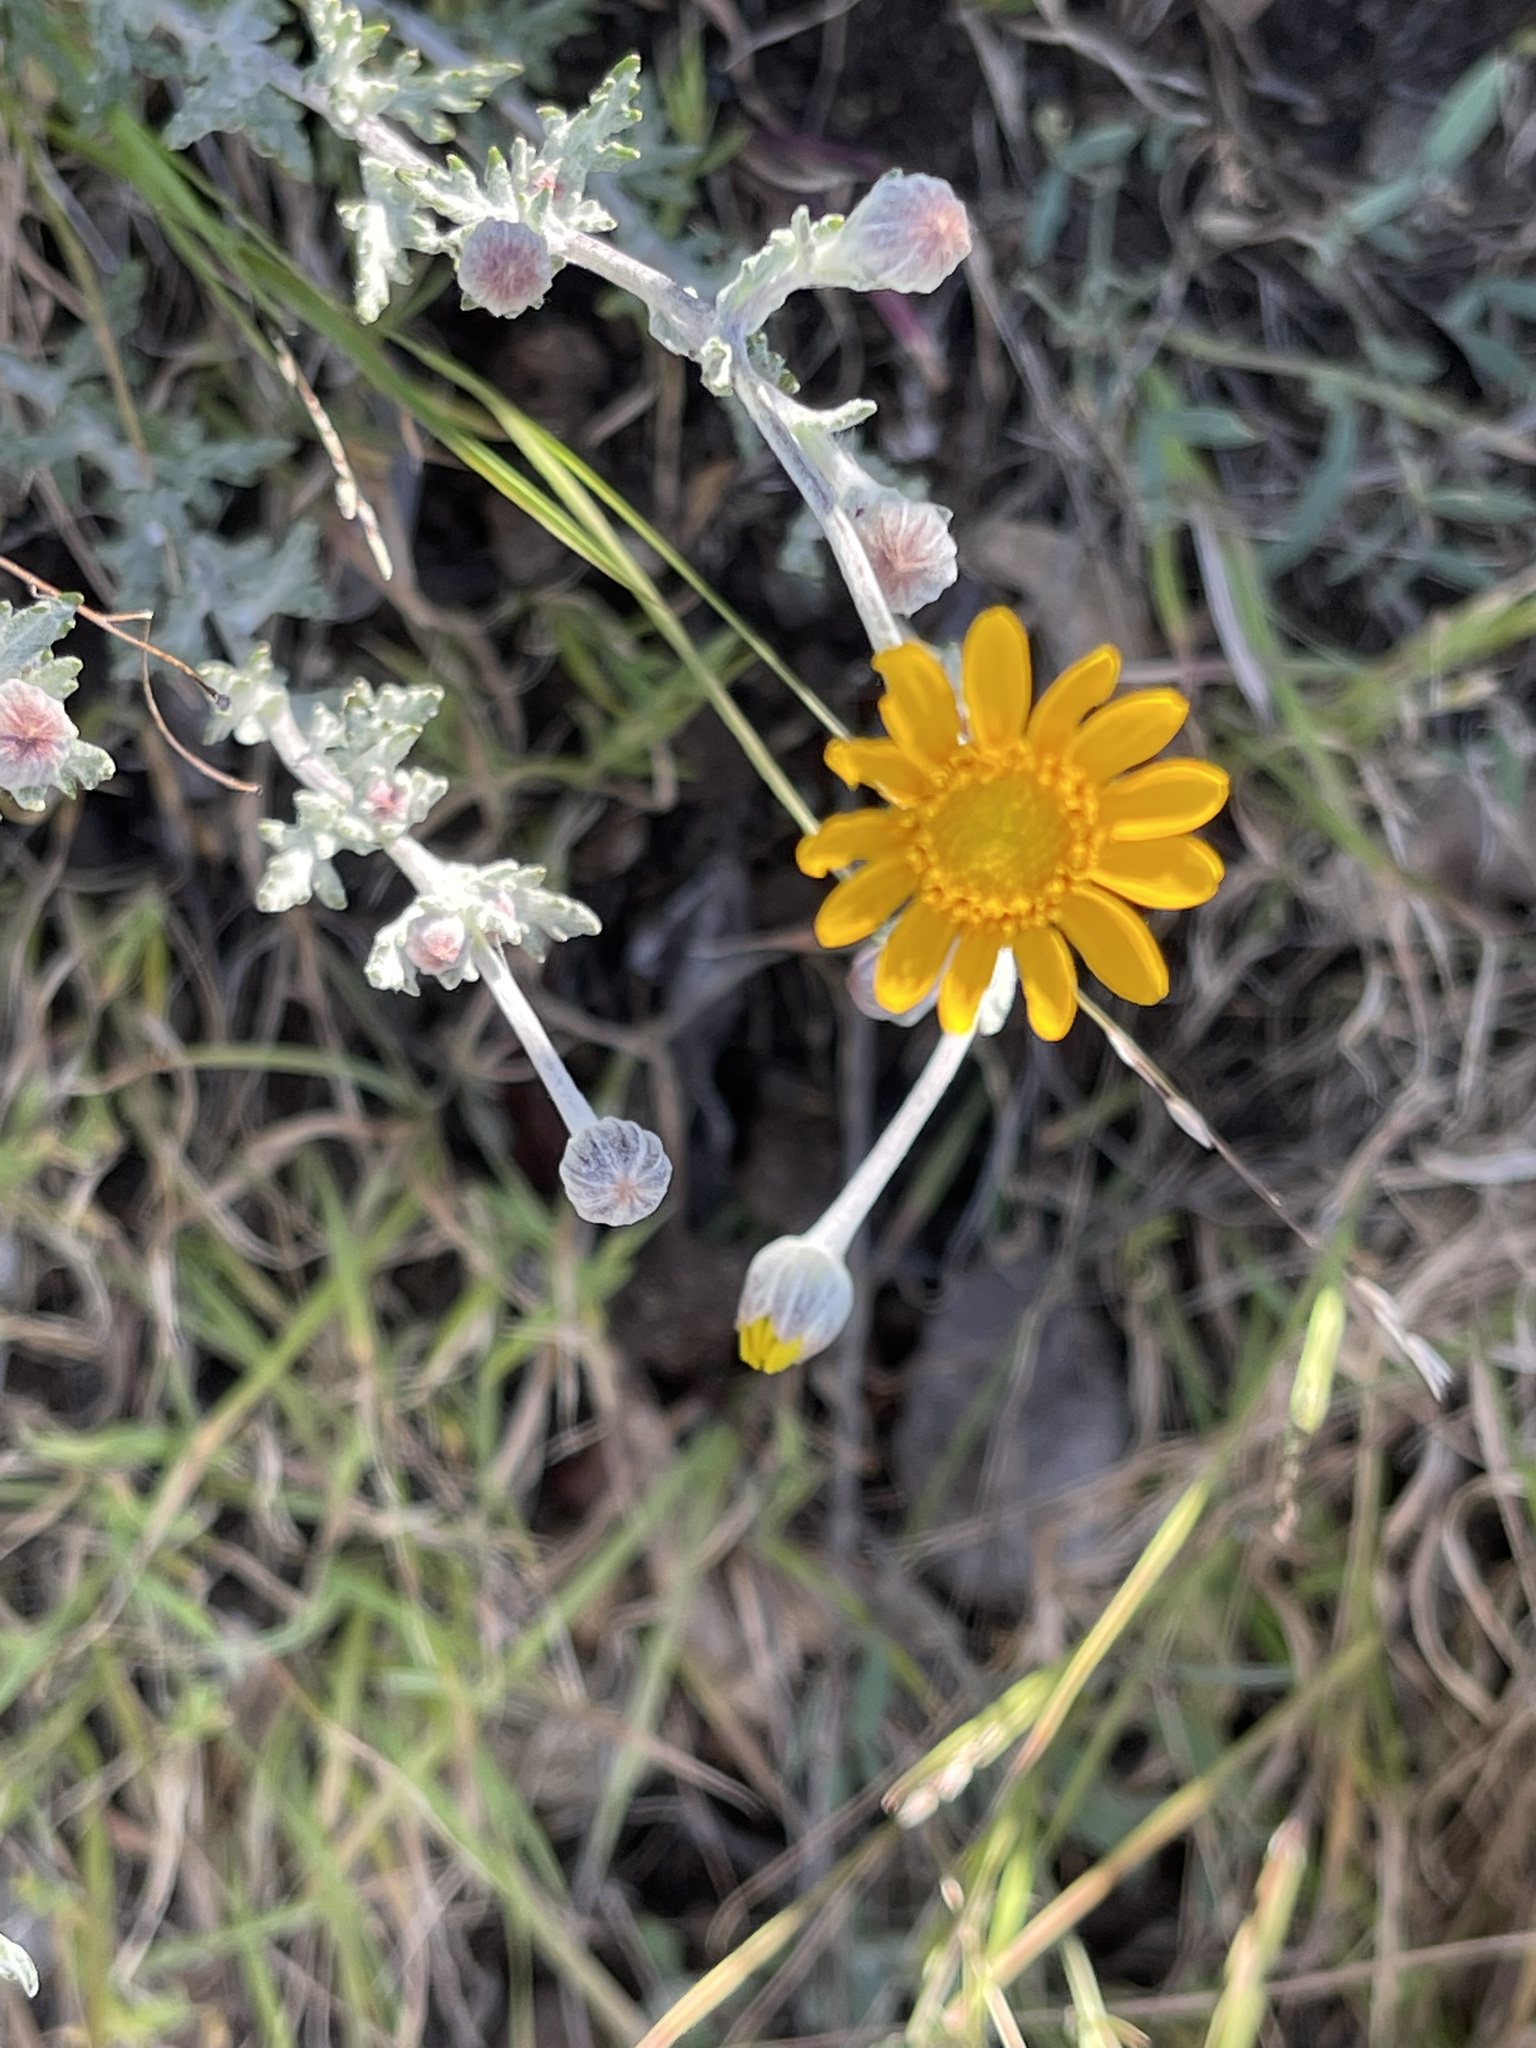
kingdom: Plantae
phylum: Tracheophyta
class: Magnoliopsida
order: Asterales
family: Asteraceae
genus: Eriophyllum
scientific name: Eriophyllum lanatum
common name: Common woolly-sunflower
